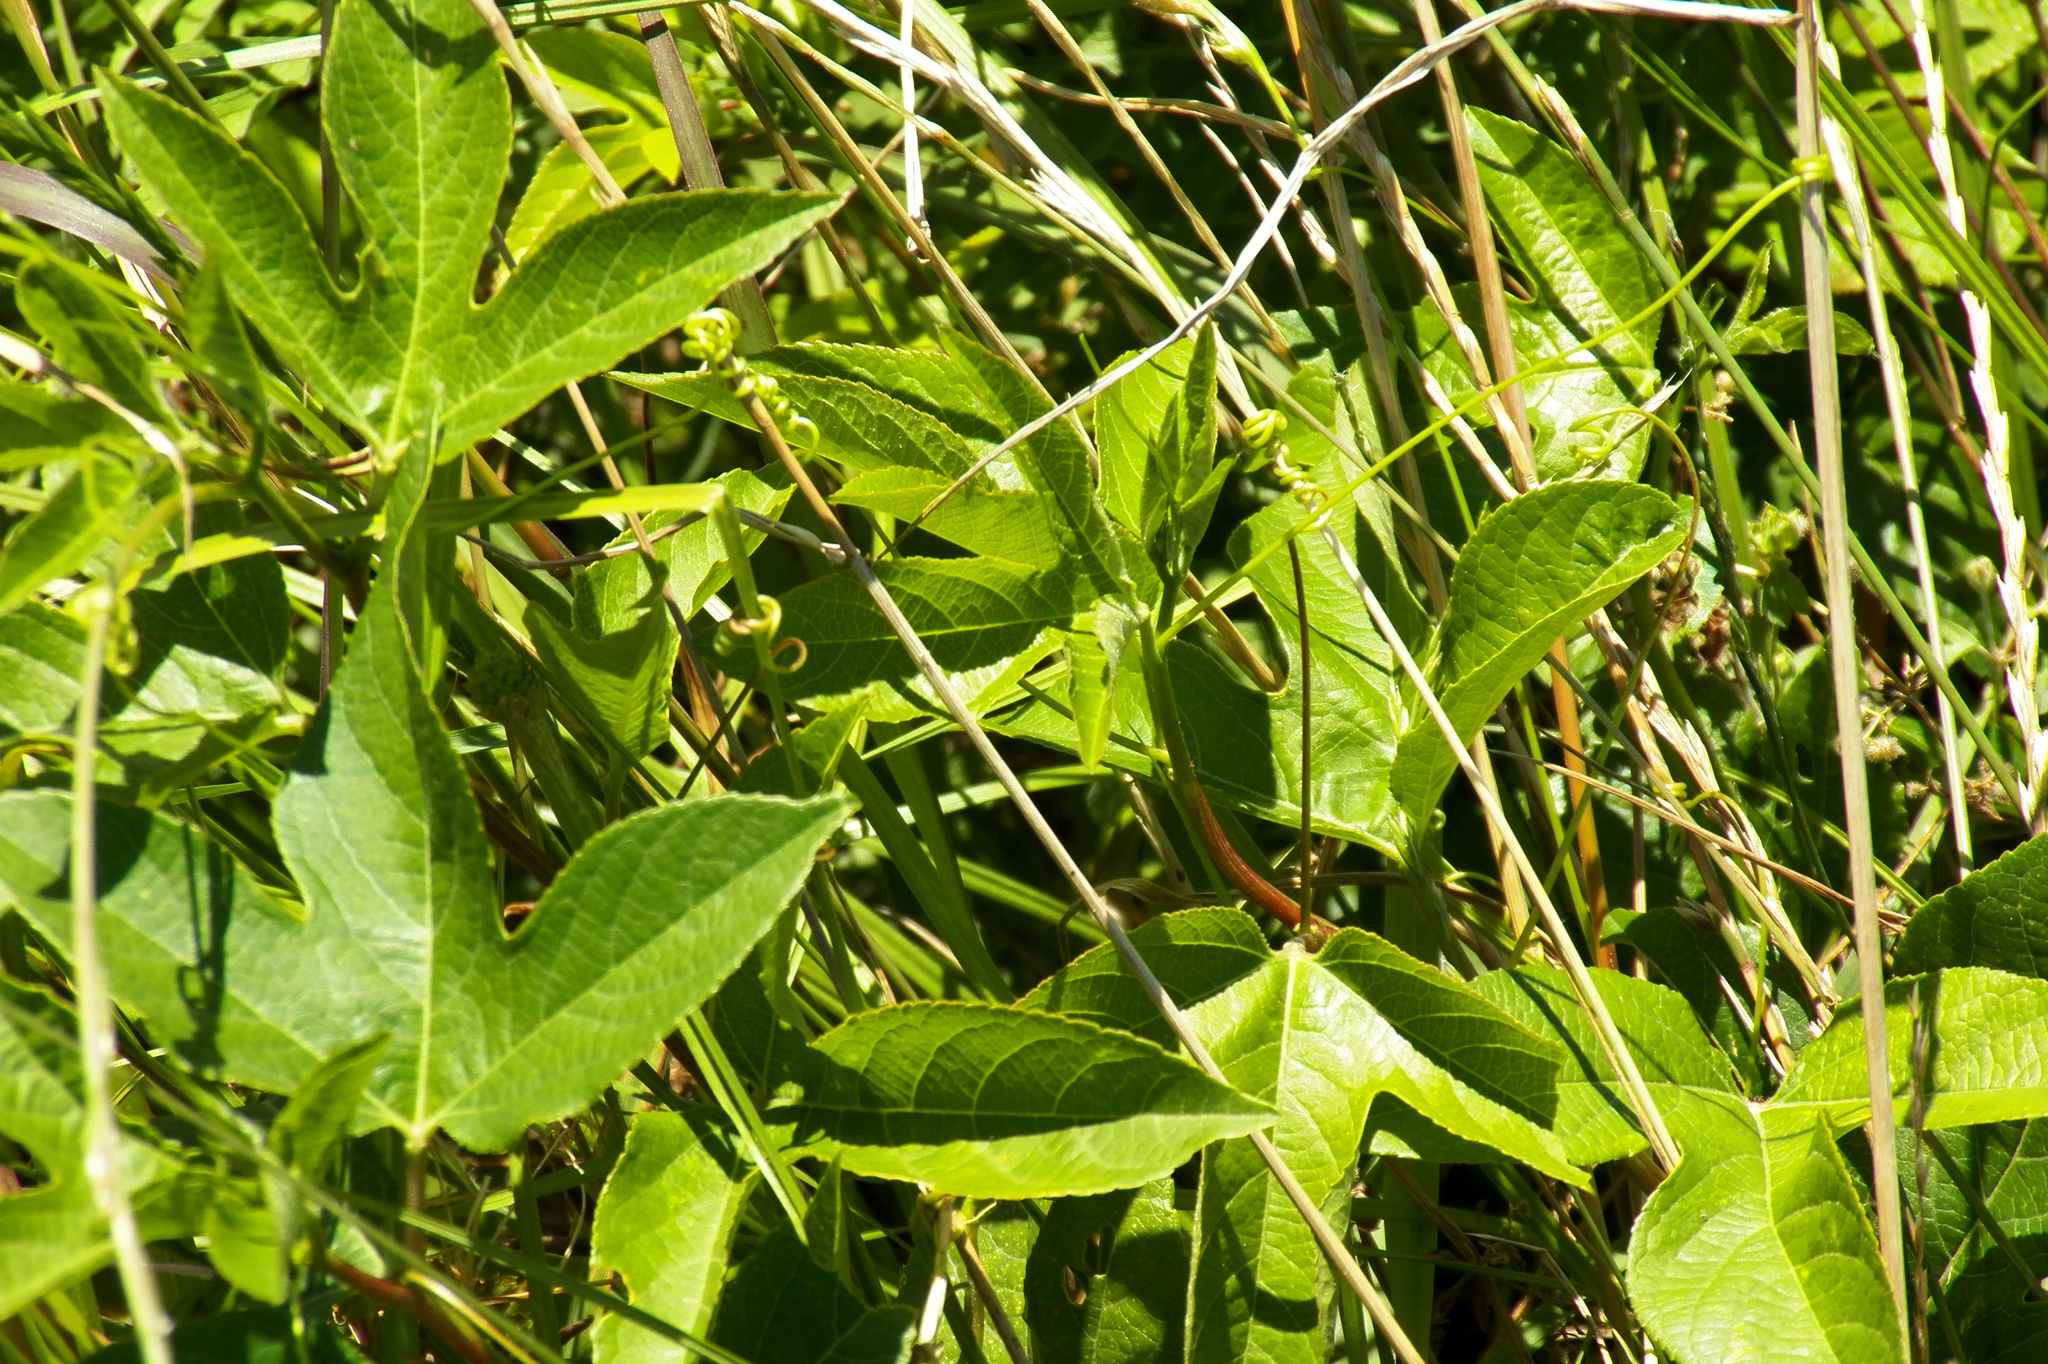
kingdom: Plantae
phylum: Tracheophyta
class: Magnoliopsida
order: Malpighiales
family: Passifloraceae
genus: Passiflora
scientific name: Passiflora incarnata
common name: Apricot-vine
